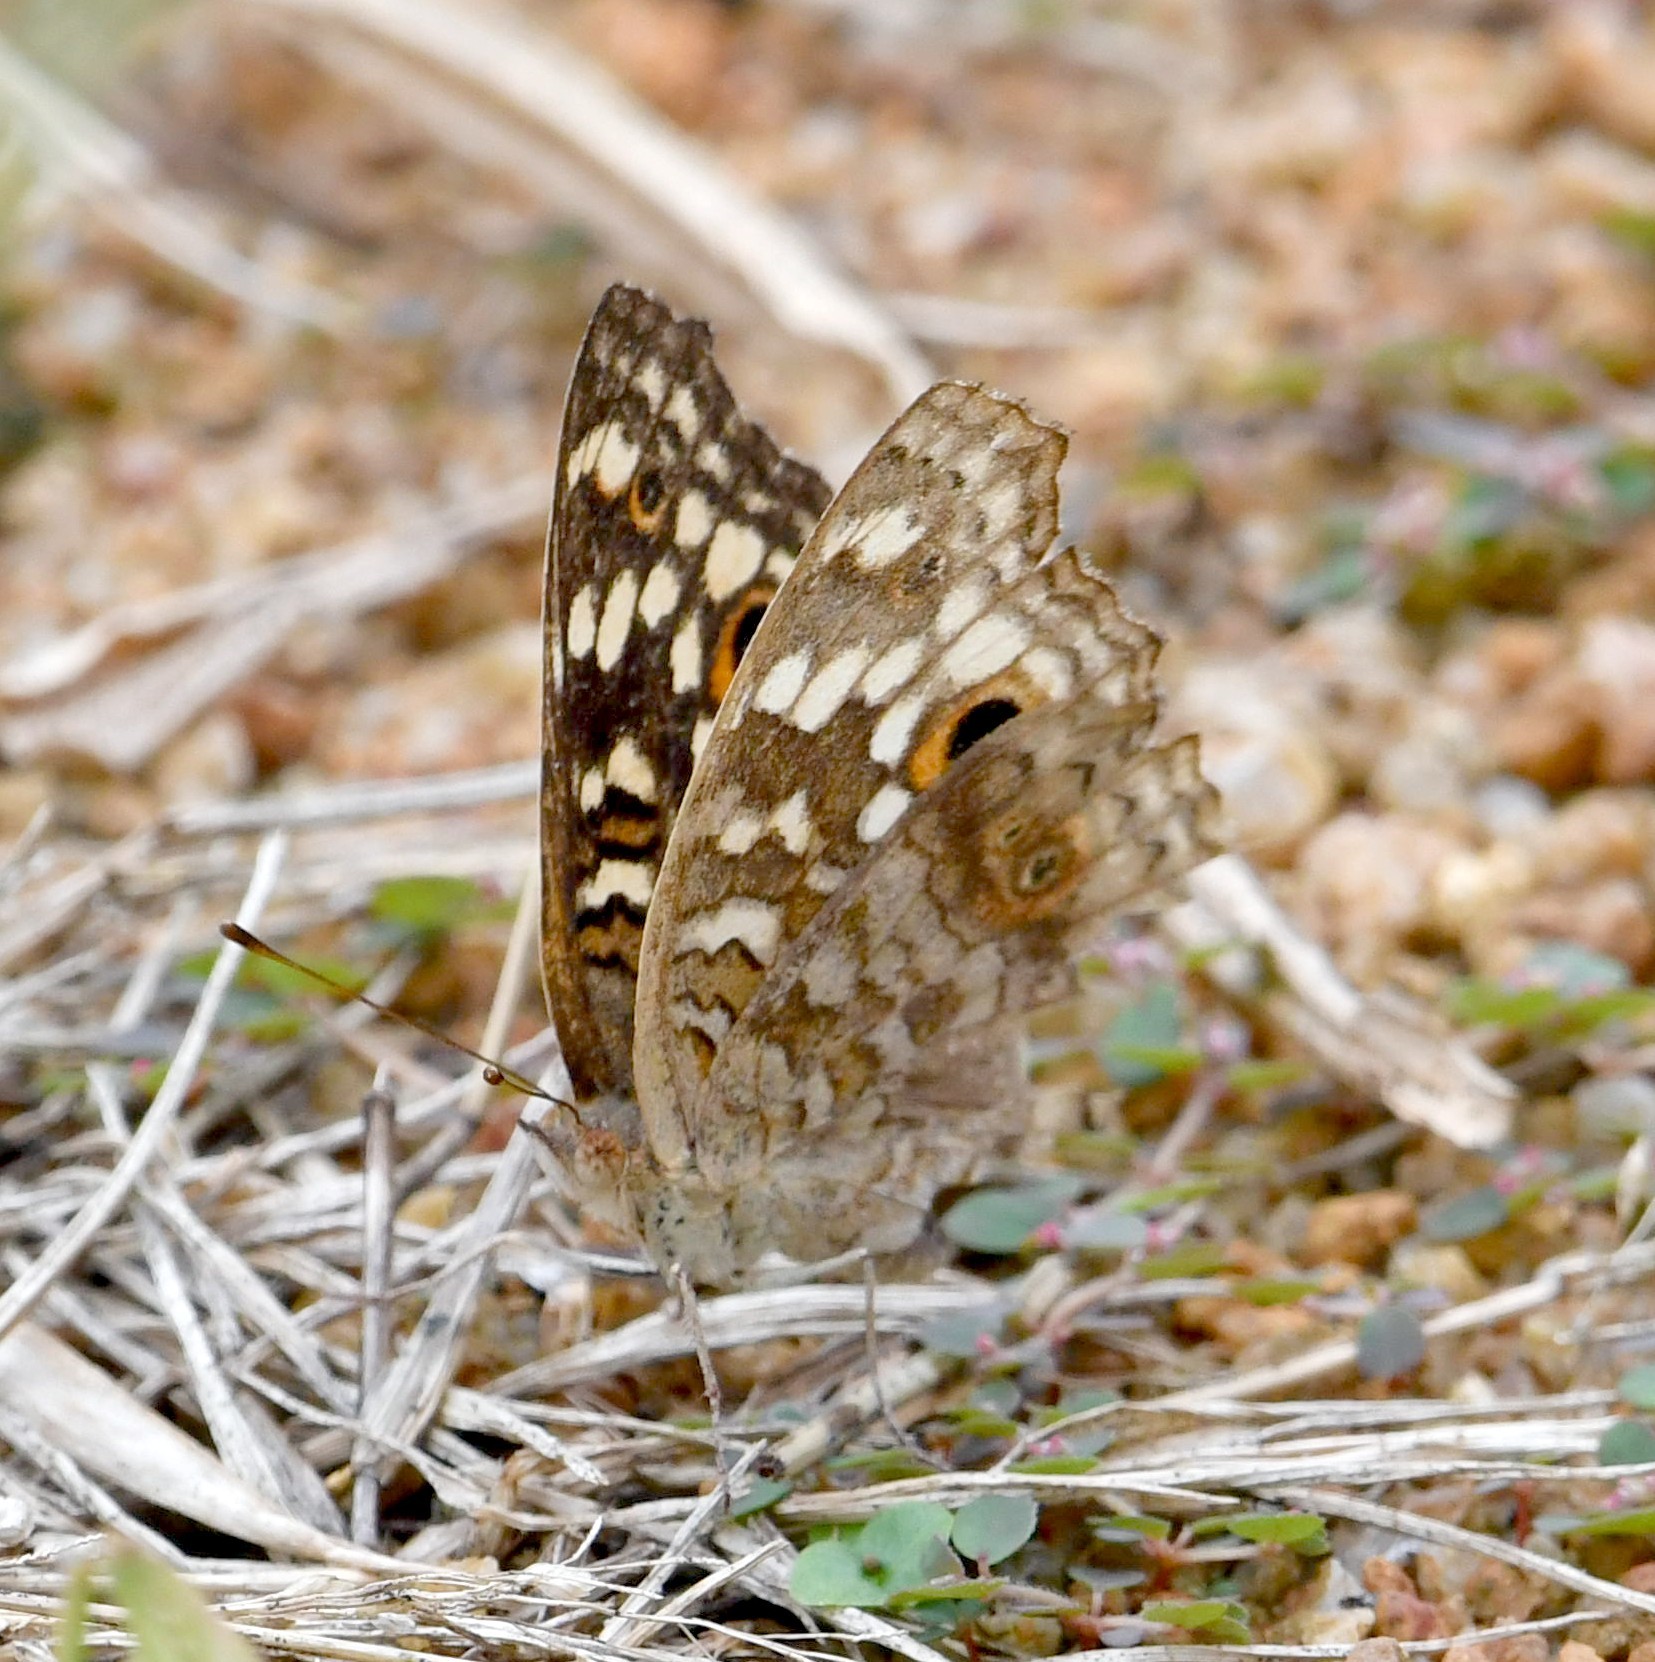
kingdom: Animalia
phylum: Arthropoda
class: Insecta
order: Lepidoptera
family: Nymphalidae
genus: Junonia
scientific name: Junonia lemonias
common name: Lemon pansy
